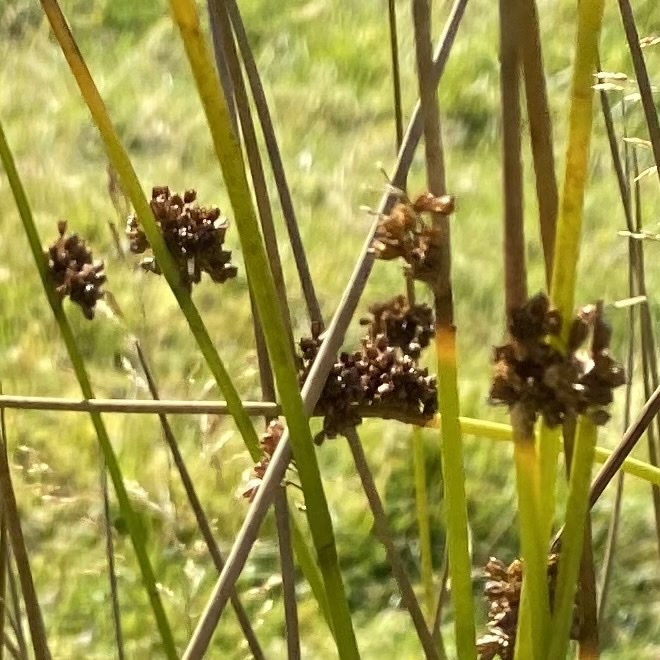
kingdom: Plantae
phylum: Tracheophyta
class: Liliopsida
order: Poales
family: Juncaceae
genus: Juncus
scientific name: Juncus effusus
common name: Soft rush
